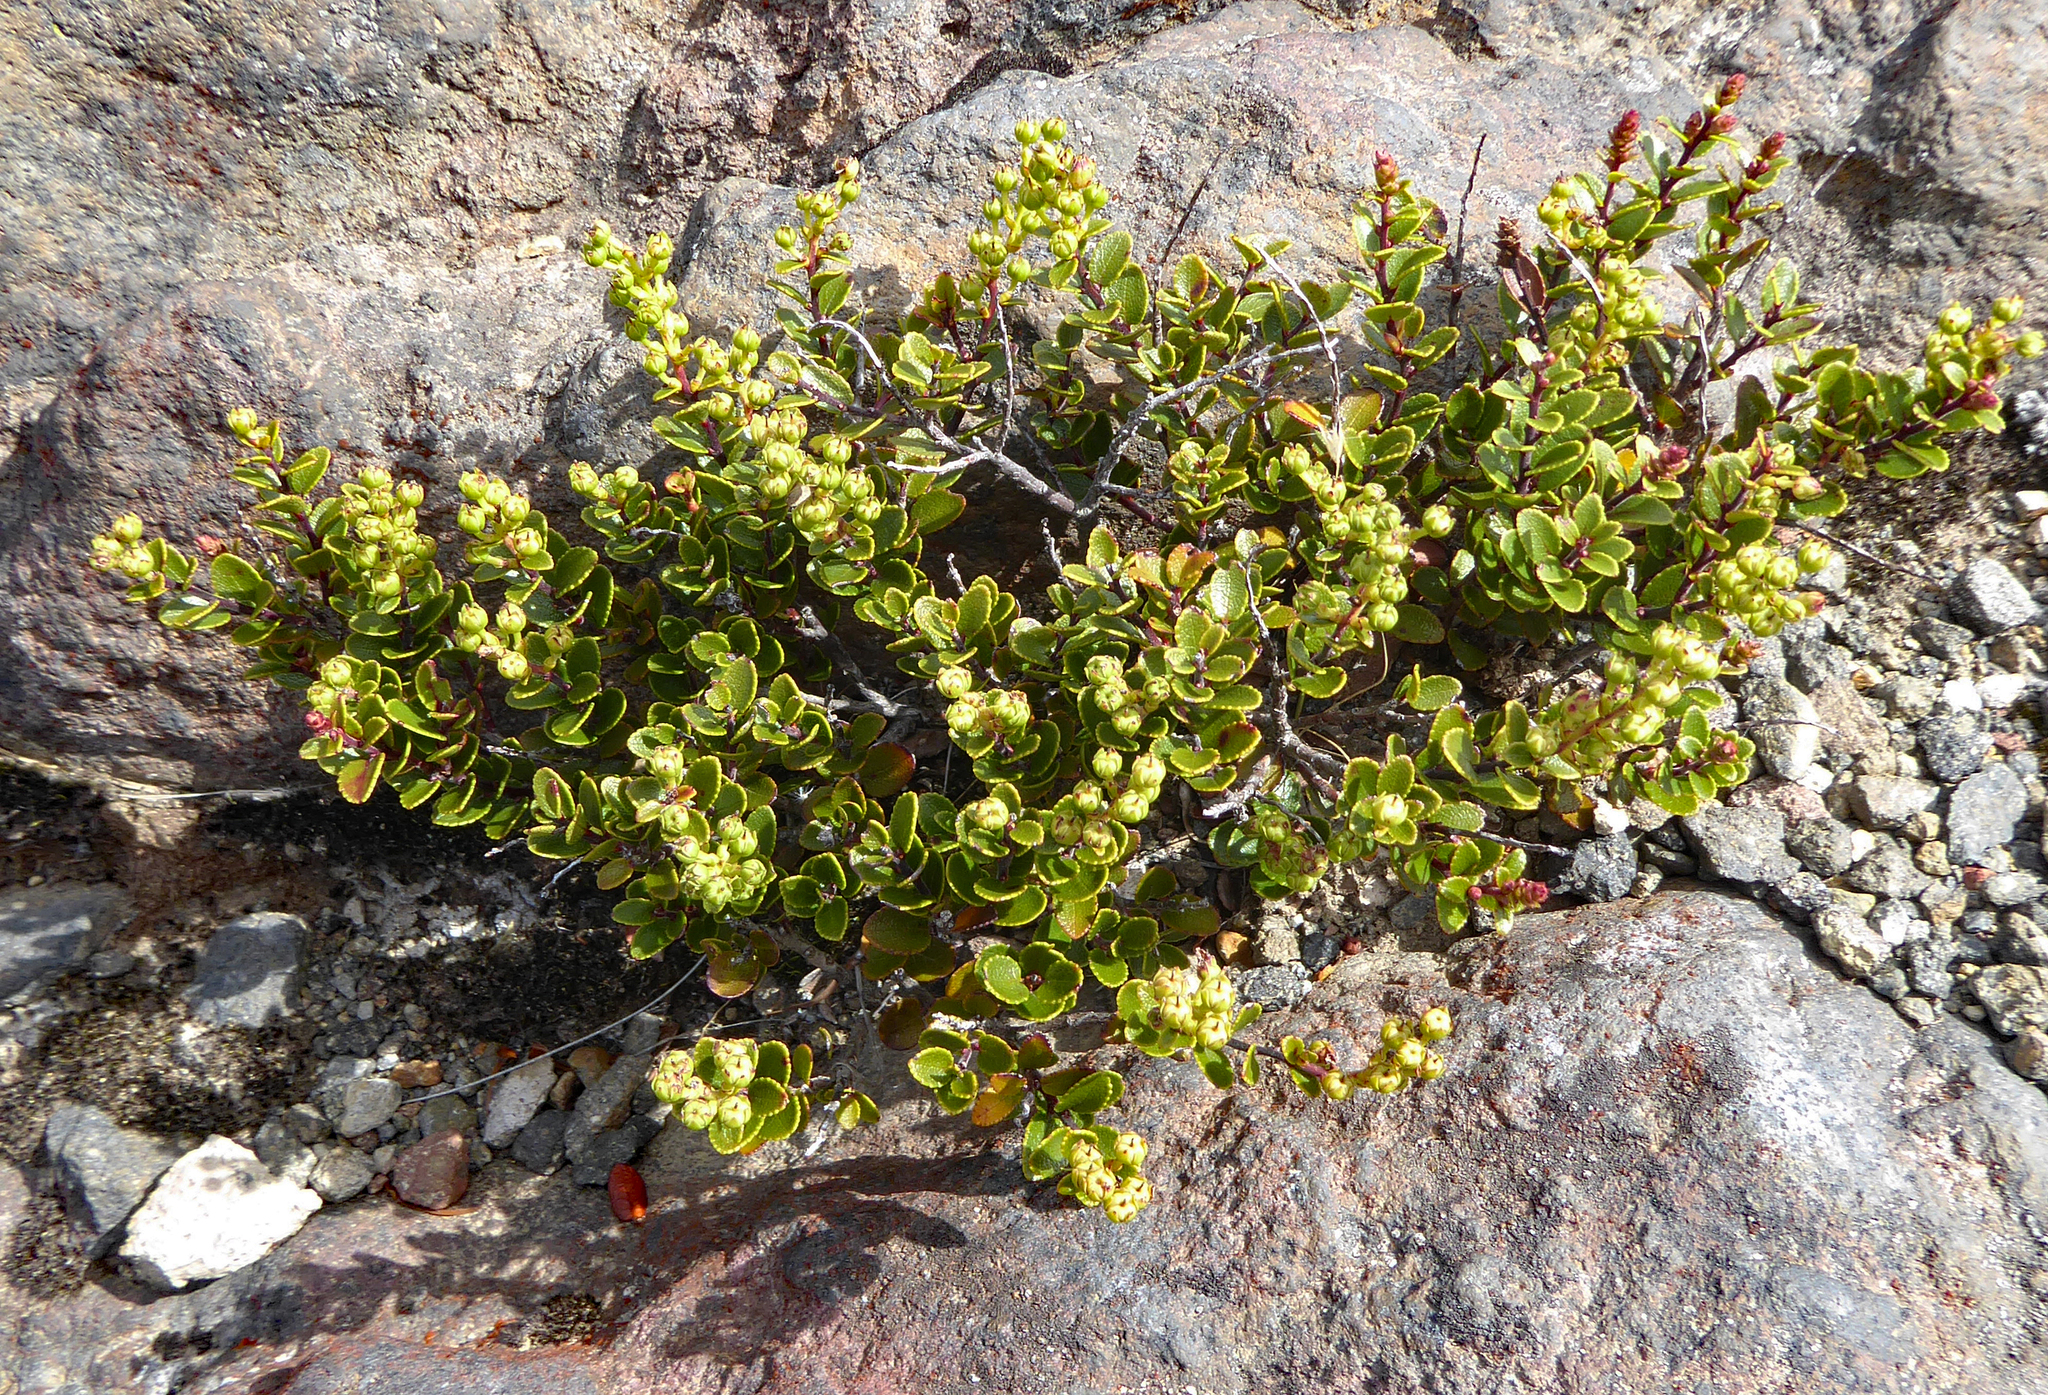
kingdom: Plantae
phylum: Tracheophyta
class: Magnoliopsida
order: Ericales
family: Ericaceae
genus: Gaultheria
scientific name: Gaultheria colensoi
